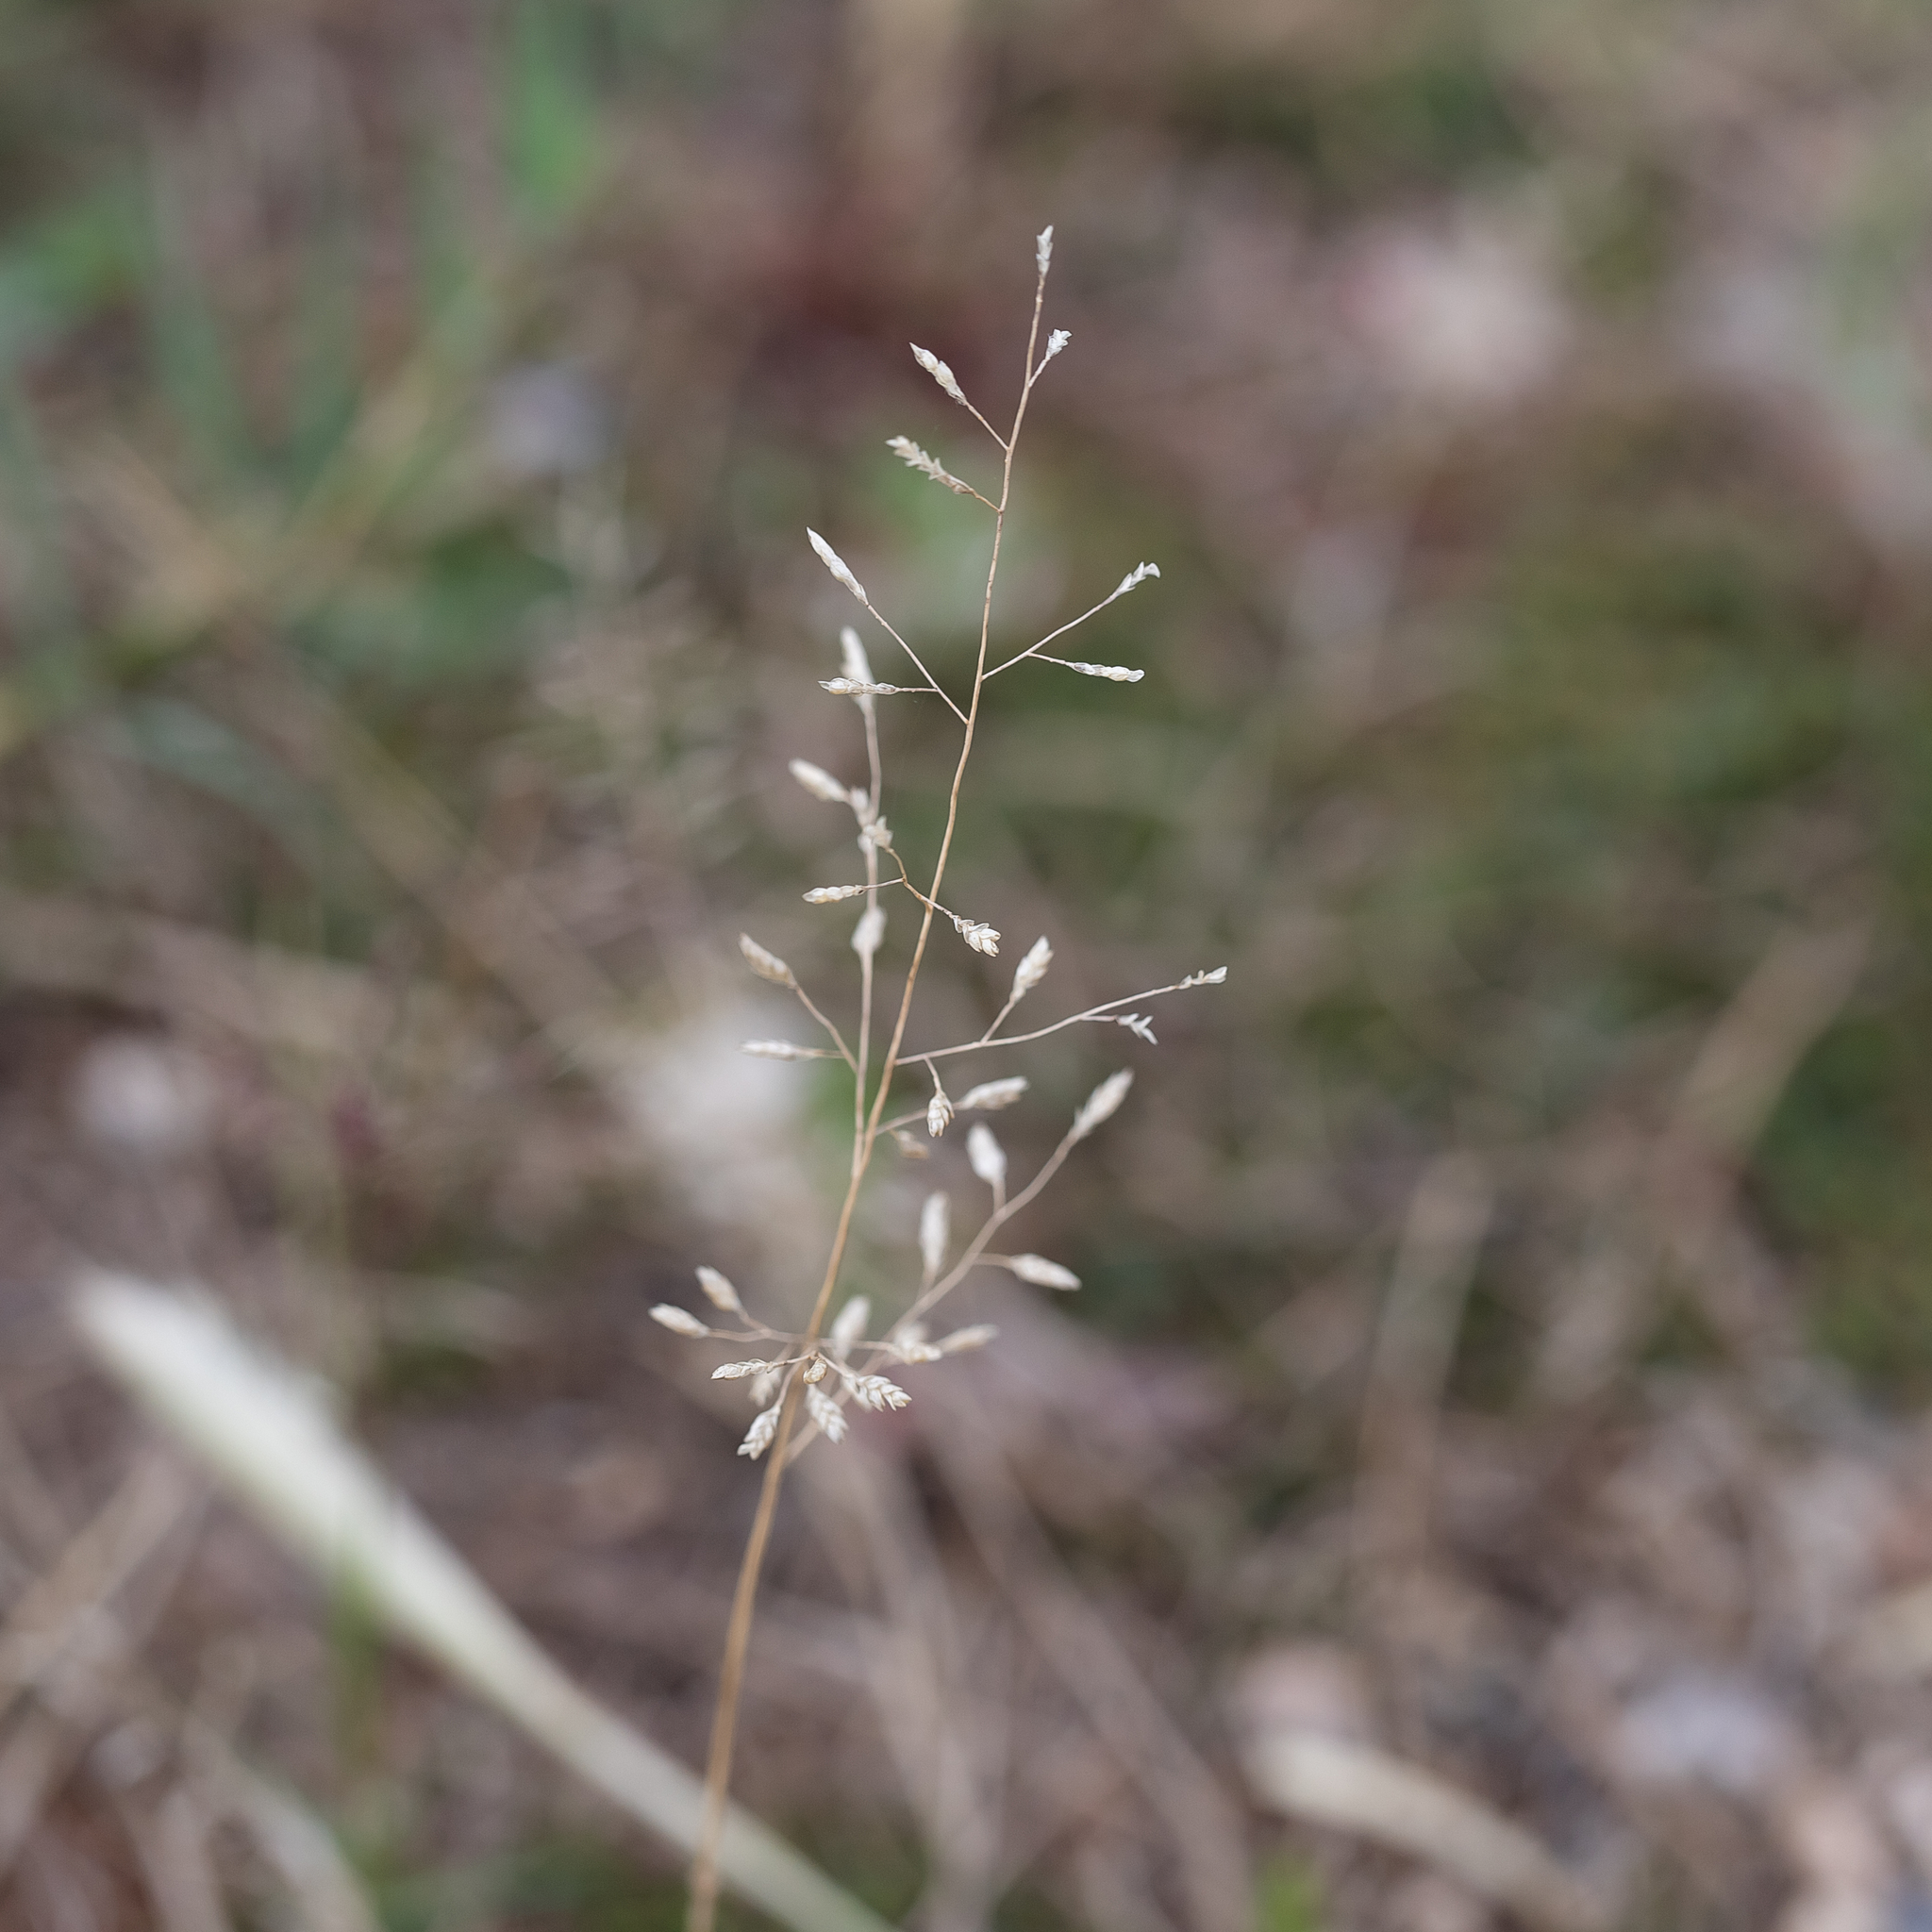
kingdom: Plantae
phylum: Tracheophyta
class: Liliopsida
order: Poales
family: Poaceae
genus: Eragrostis
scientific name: Eragrostis minor
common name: Small love-grass
